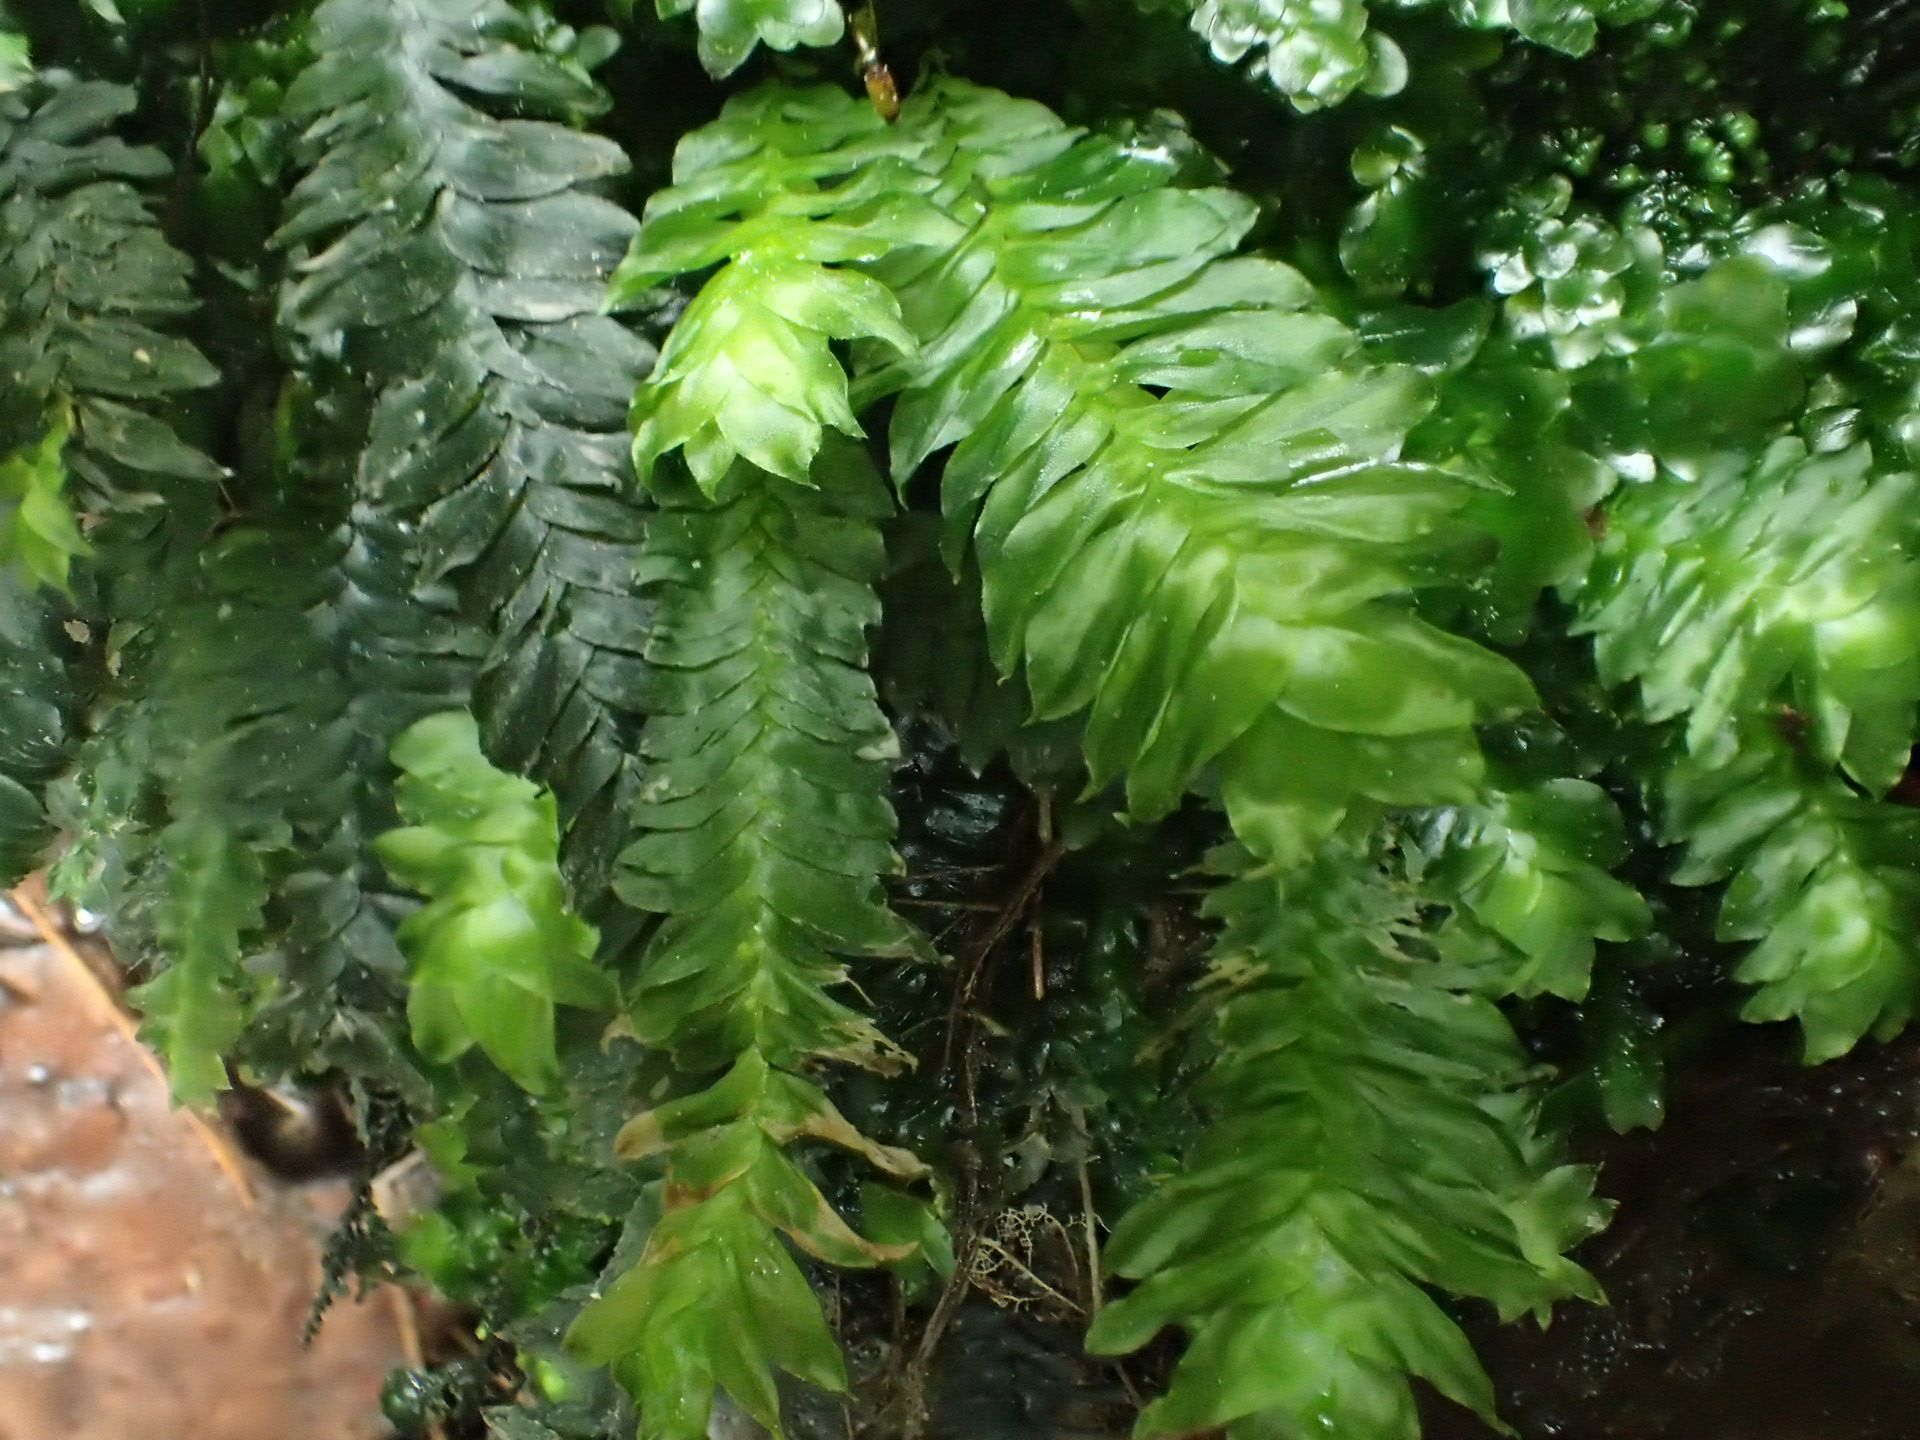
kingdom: Plantae
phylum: Bryophyta
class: Bryopsida
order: Hypopterygiales
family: Hypopterygiaceae
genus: Cyathophorum
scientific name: Cyathophorum bulbosum
